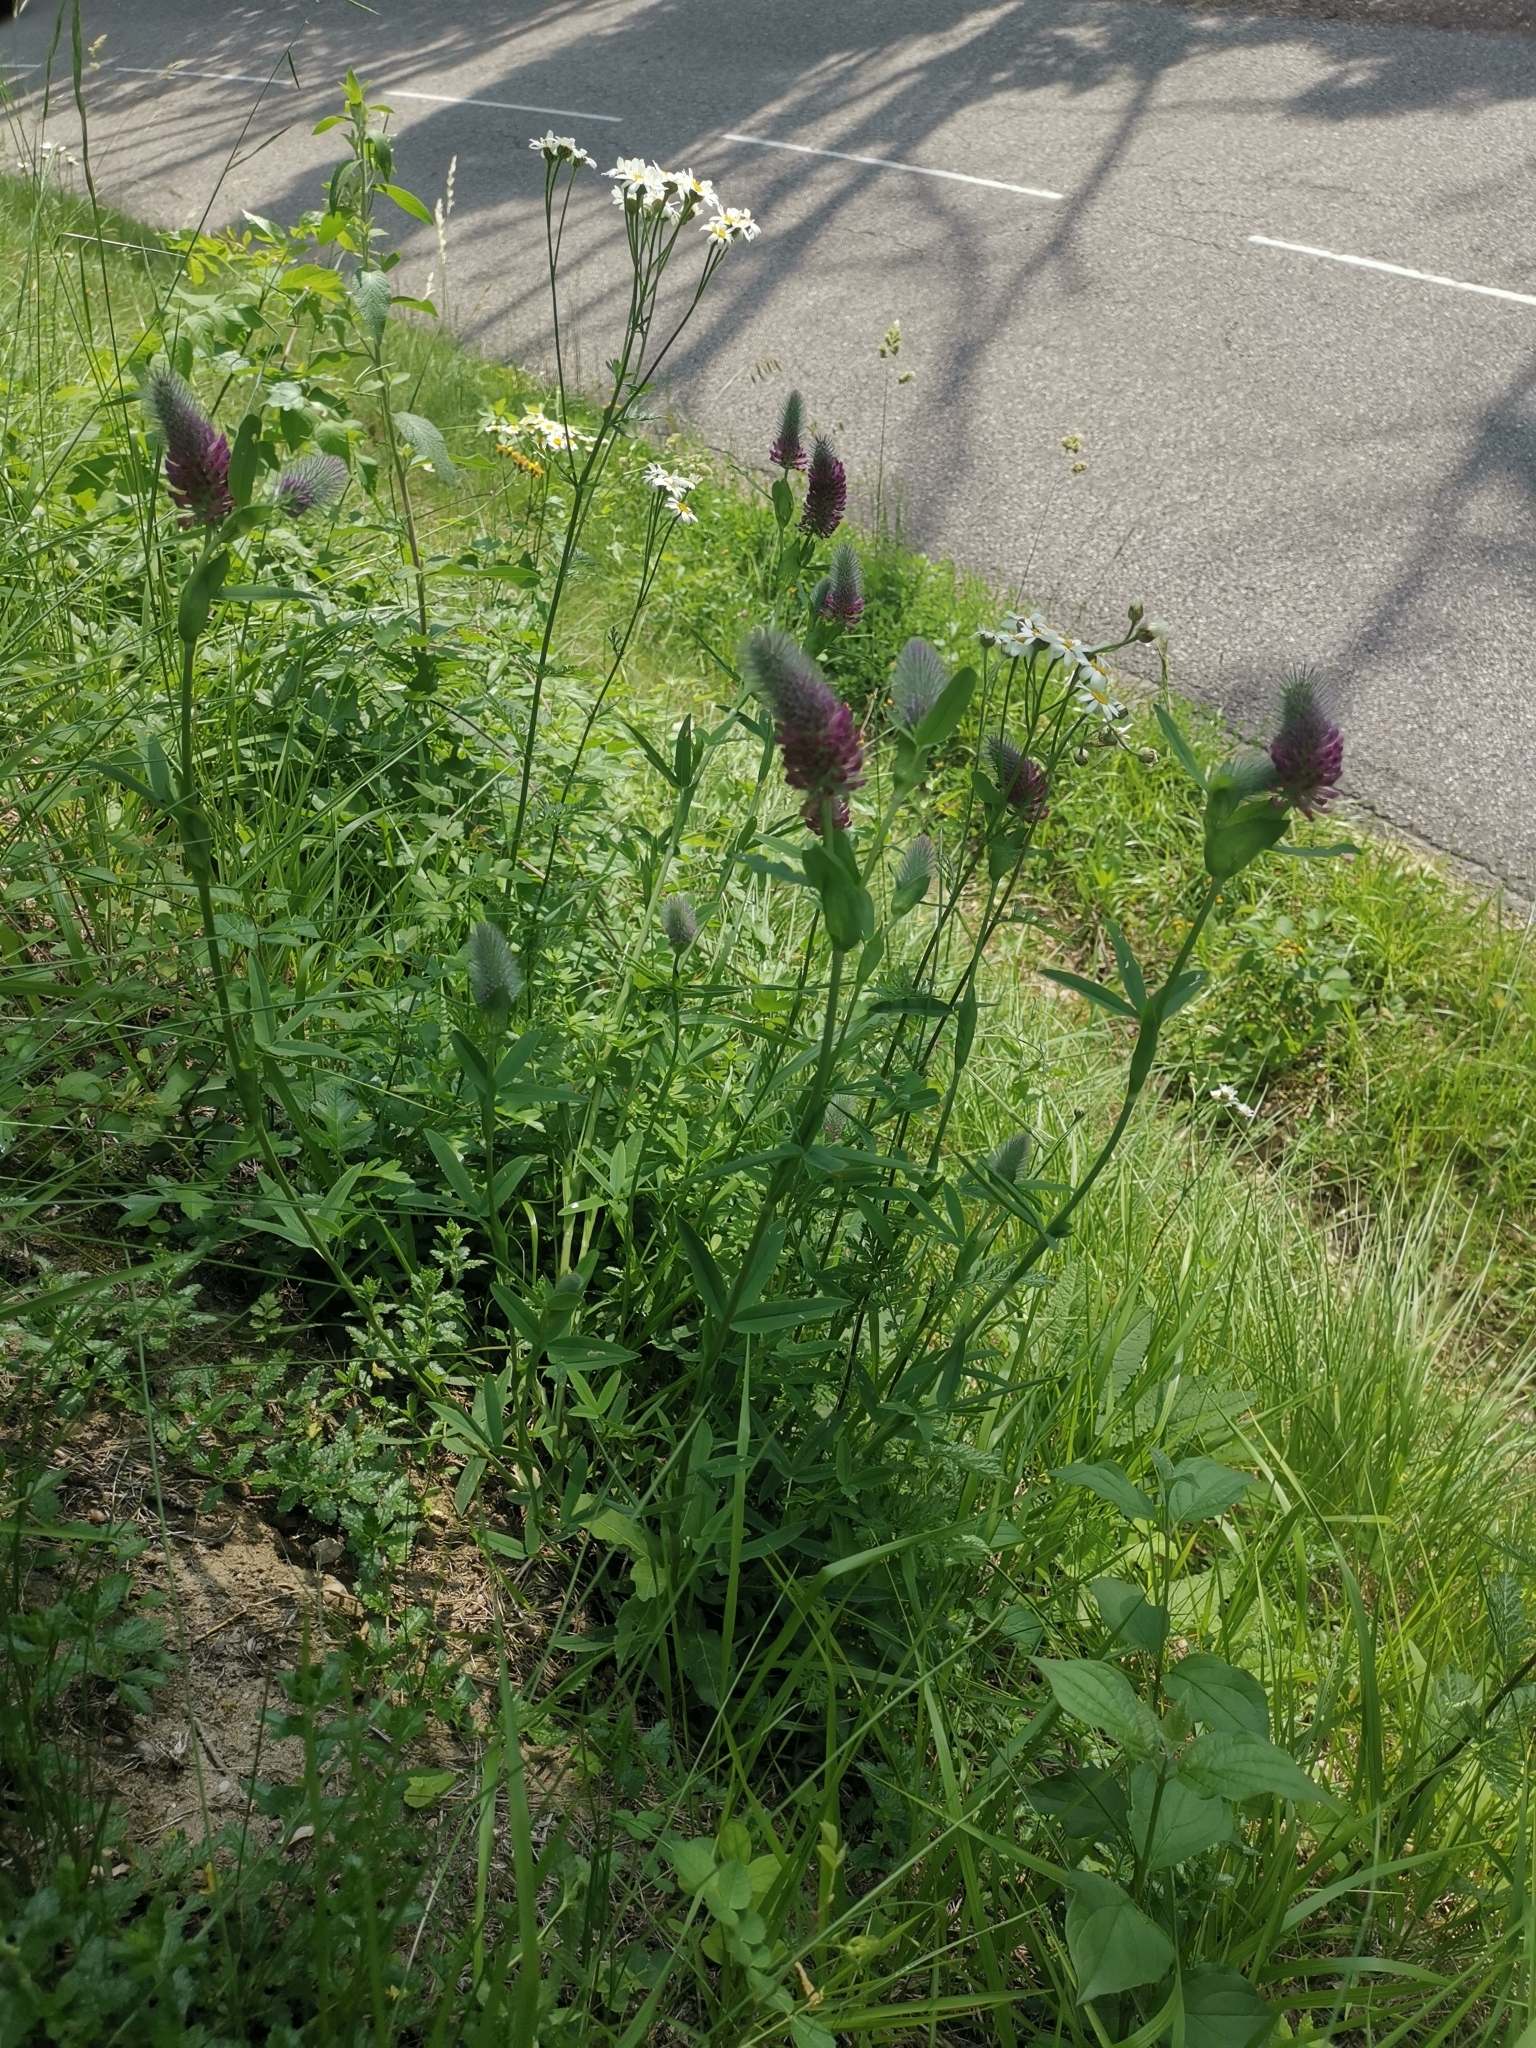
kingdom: Plantae
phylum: Tracheophyta
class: Magnoliopsida
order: Fabales
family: Fabaceae
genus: Trifolium
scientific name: Trifolium rubens
